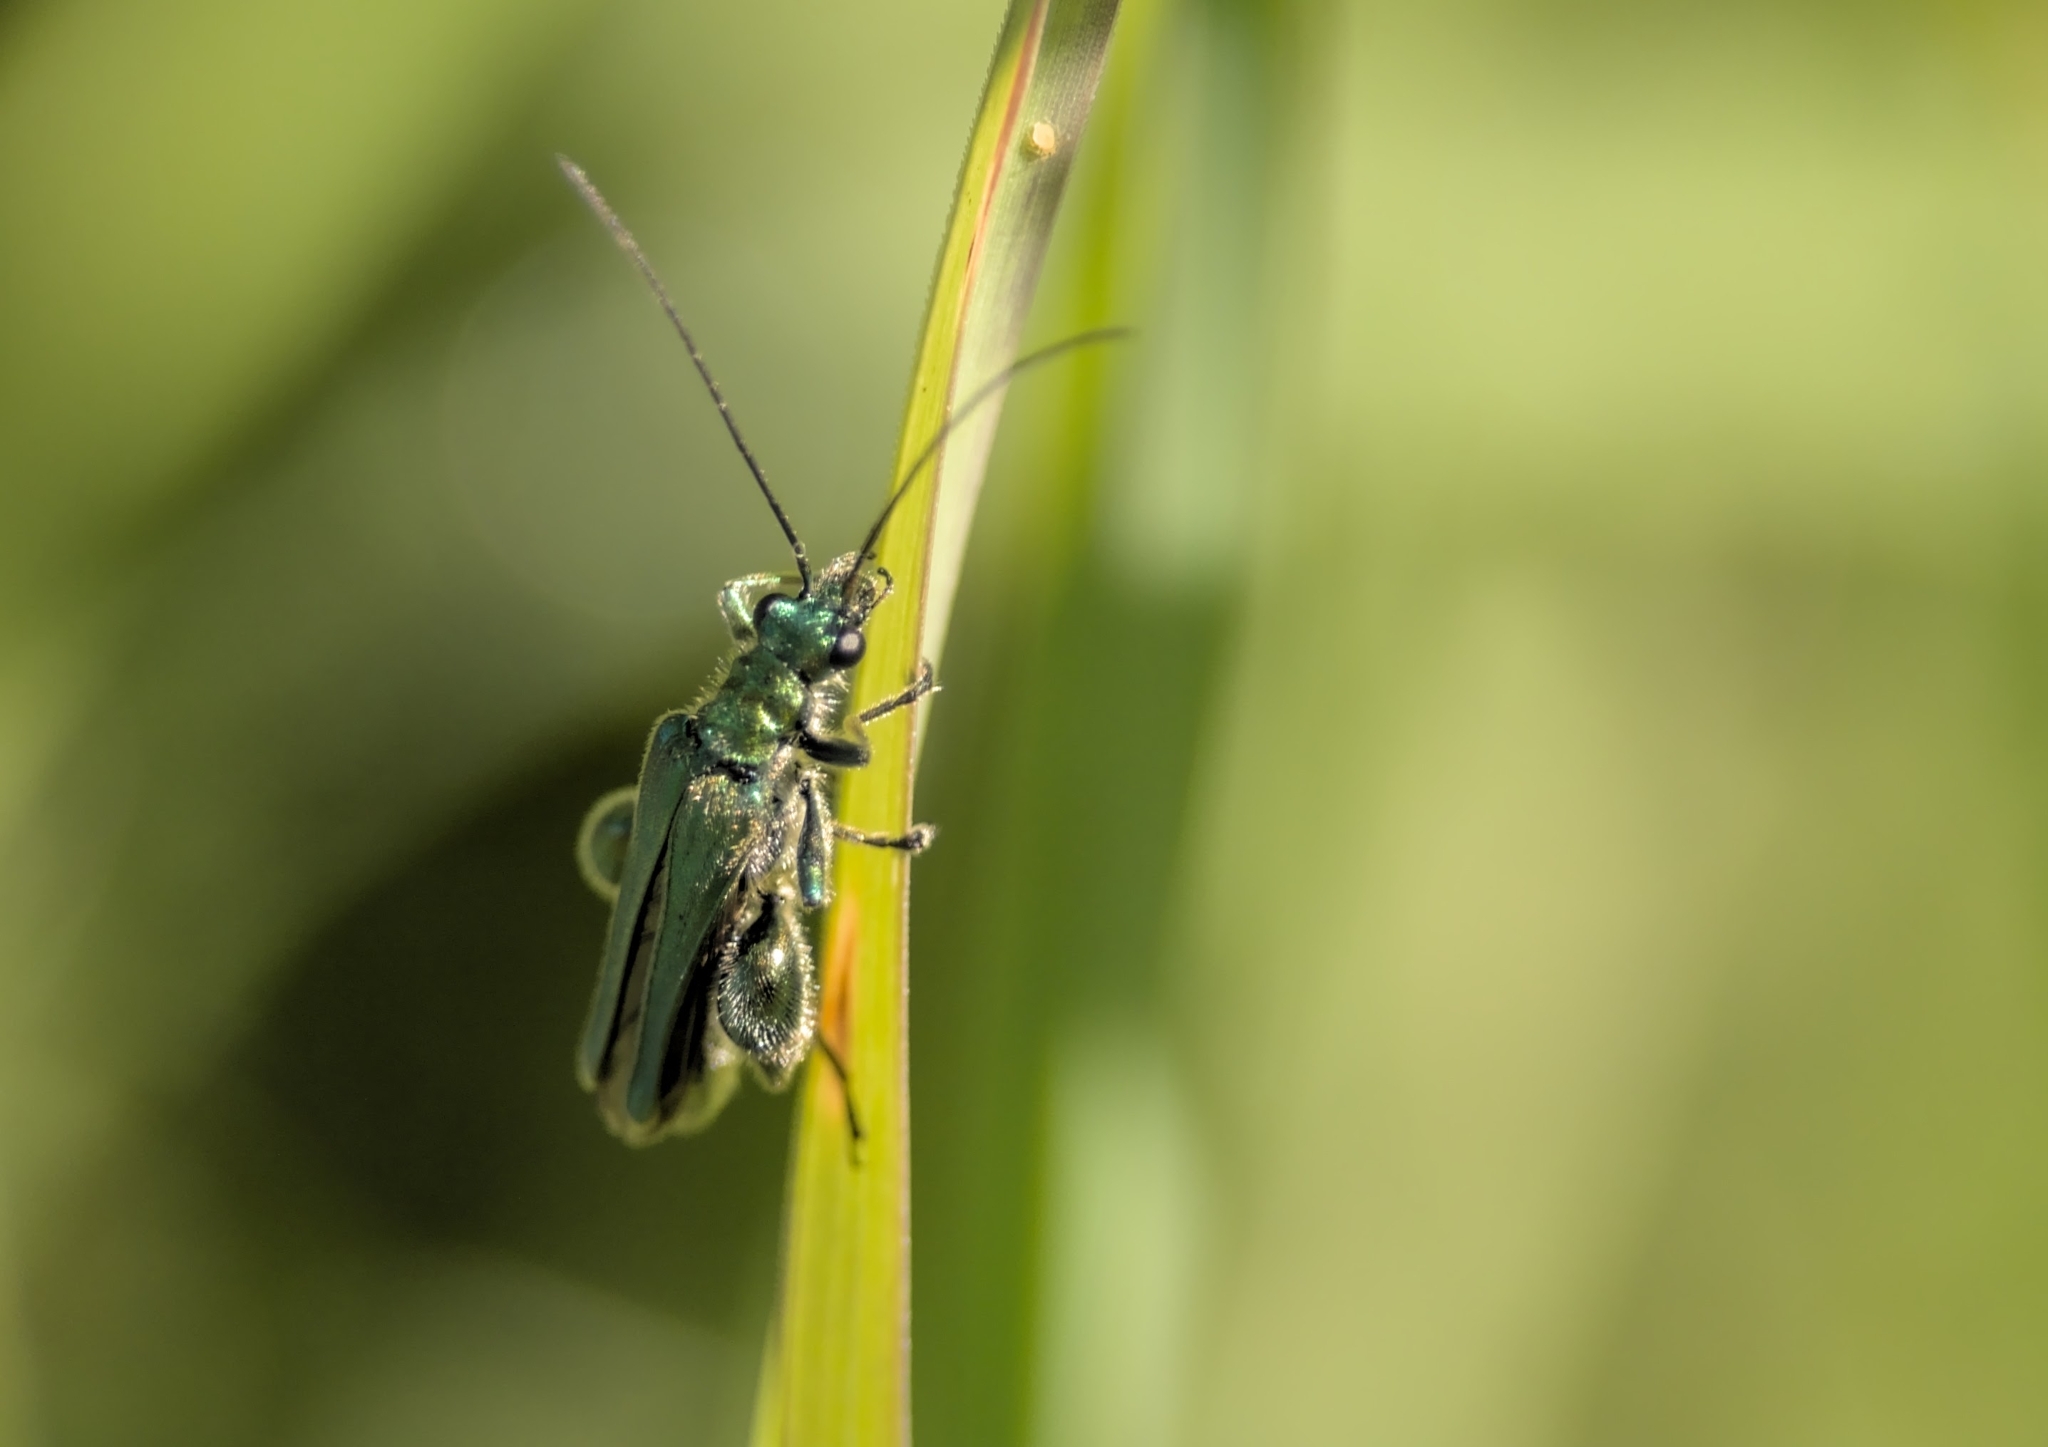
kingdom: Animalia
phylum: Arthropoda
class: Insecta
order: Coleoptera
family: Oedemeridae
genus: Oedemera
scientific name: Oedemera nobilis
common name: Swollen-thighed beetle
